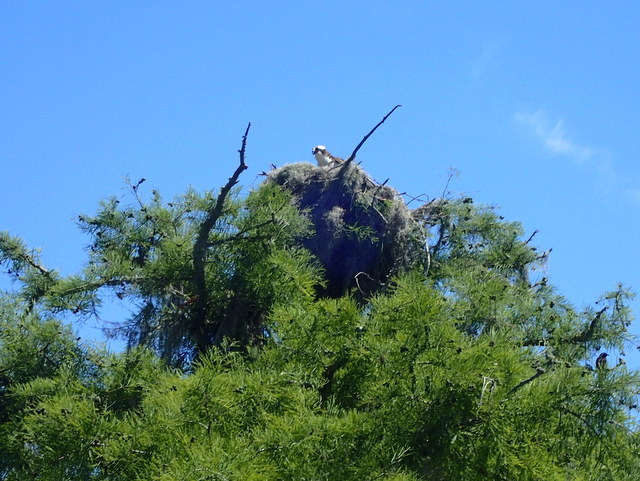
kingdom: Animalia
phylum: Chordata
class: Aves
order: Accipitriformes
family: Pandionidae
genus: Pandion
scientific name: Pandion haliaetus
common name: Osprey
